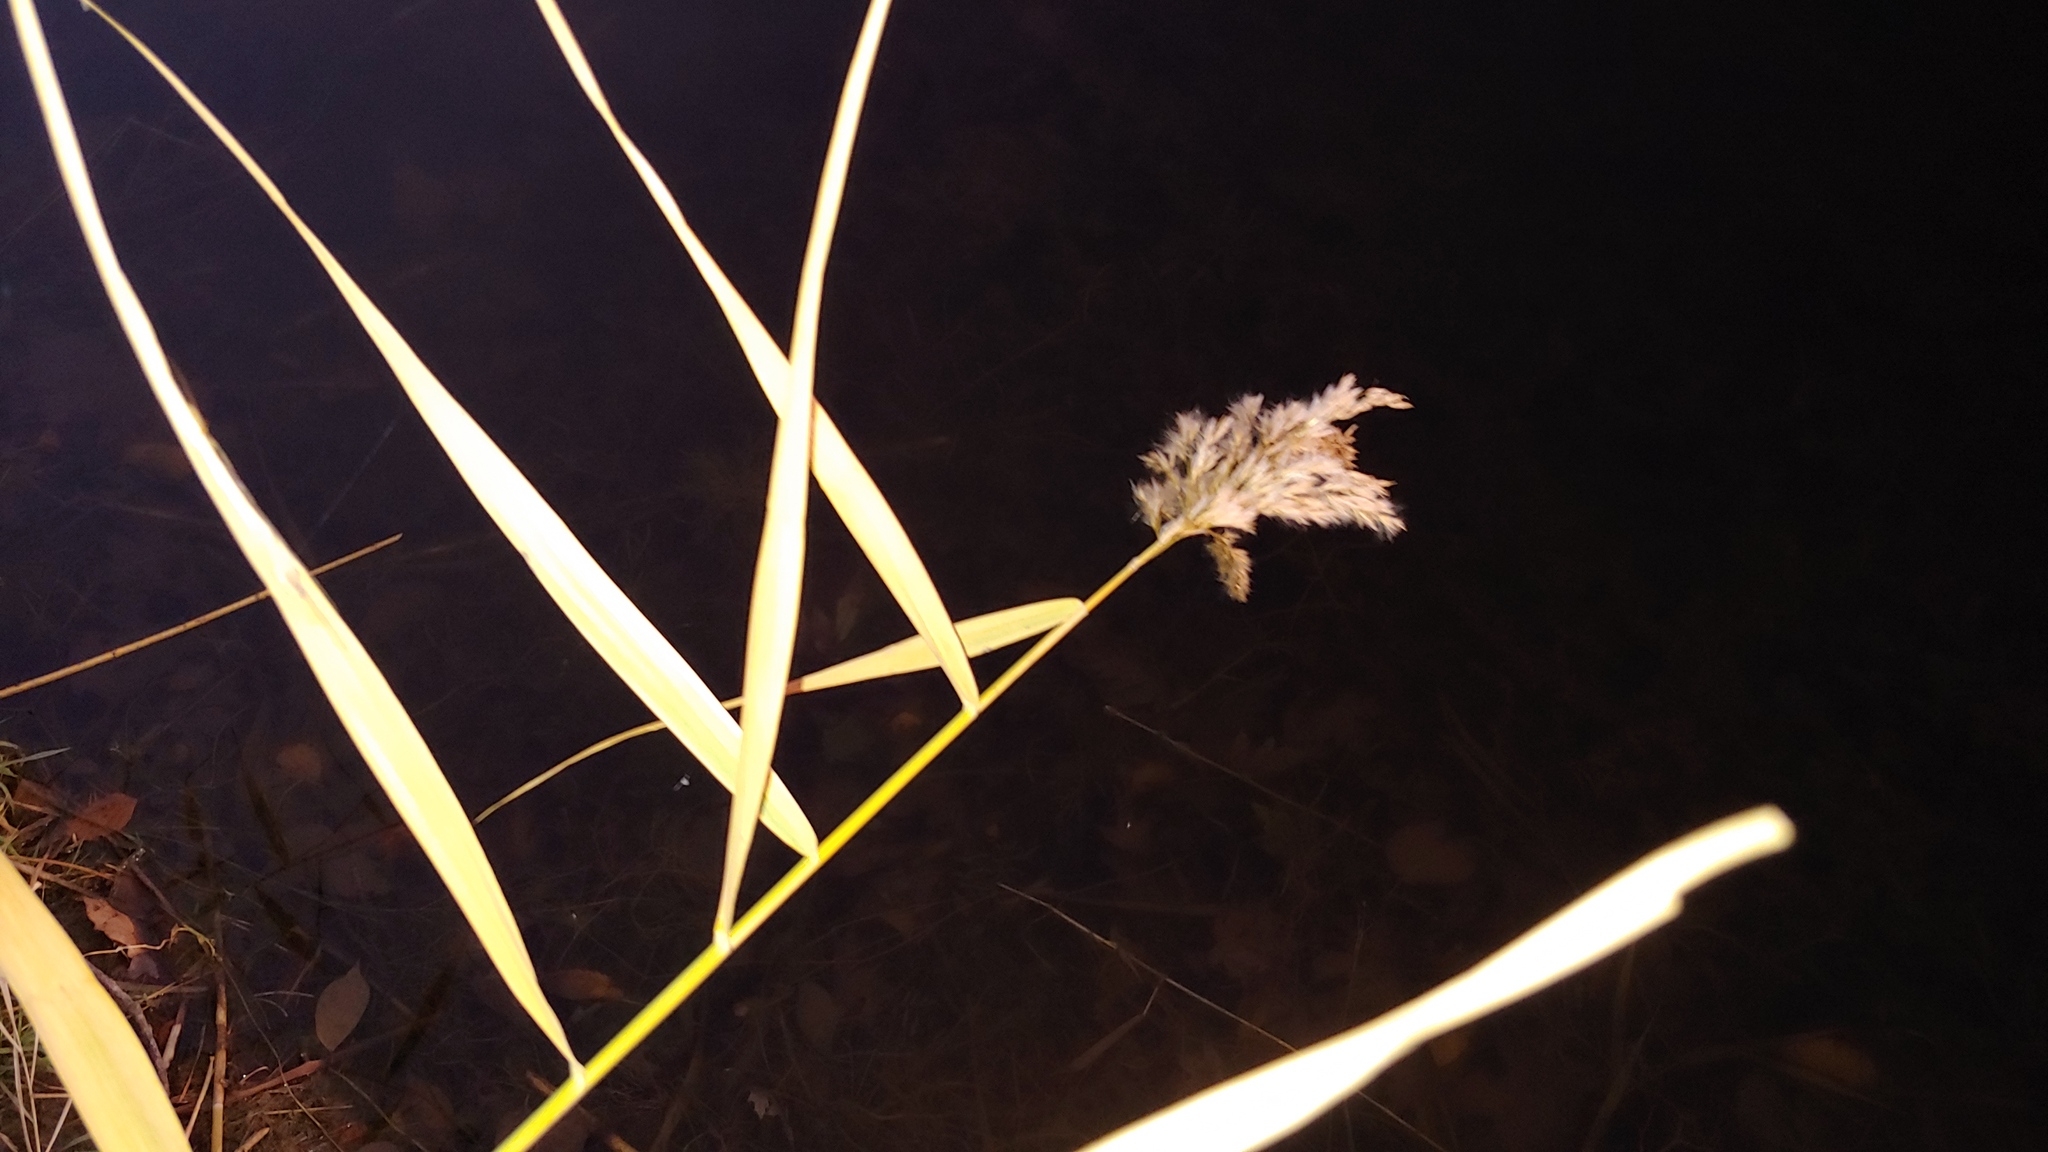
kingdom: Plantae
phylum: Tracheophyta
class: Liliopsida
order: Poales
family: Poaceae
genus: Phragmites
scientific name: Phragmites australis
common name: Common reed
